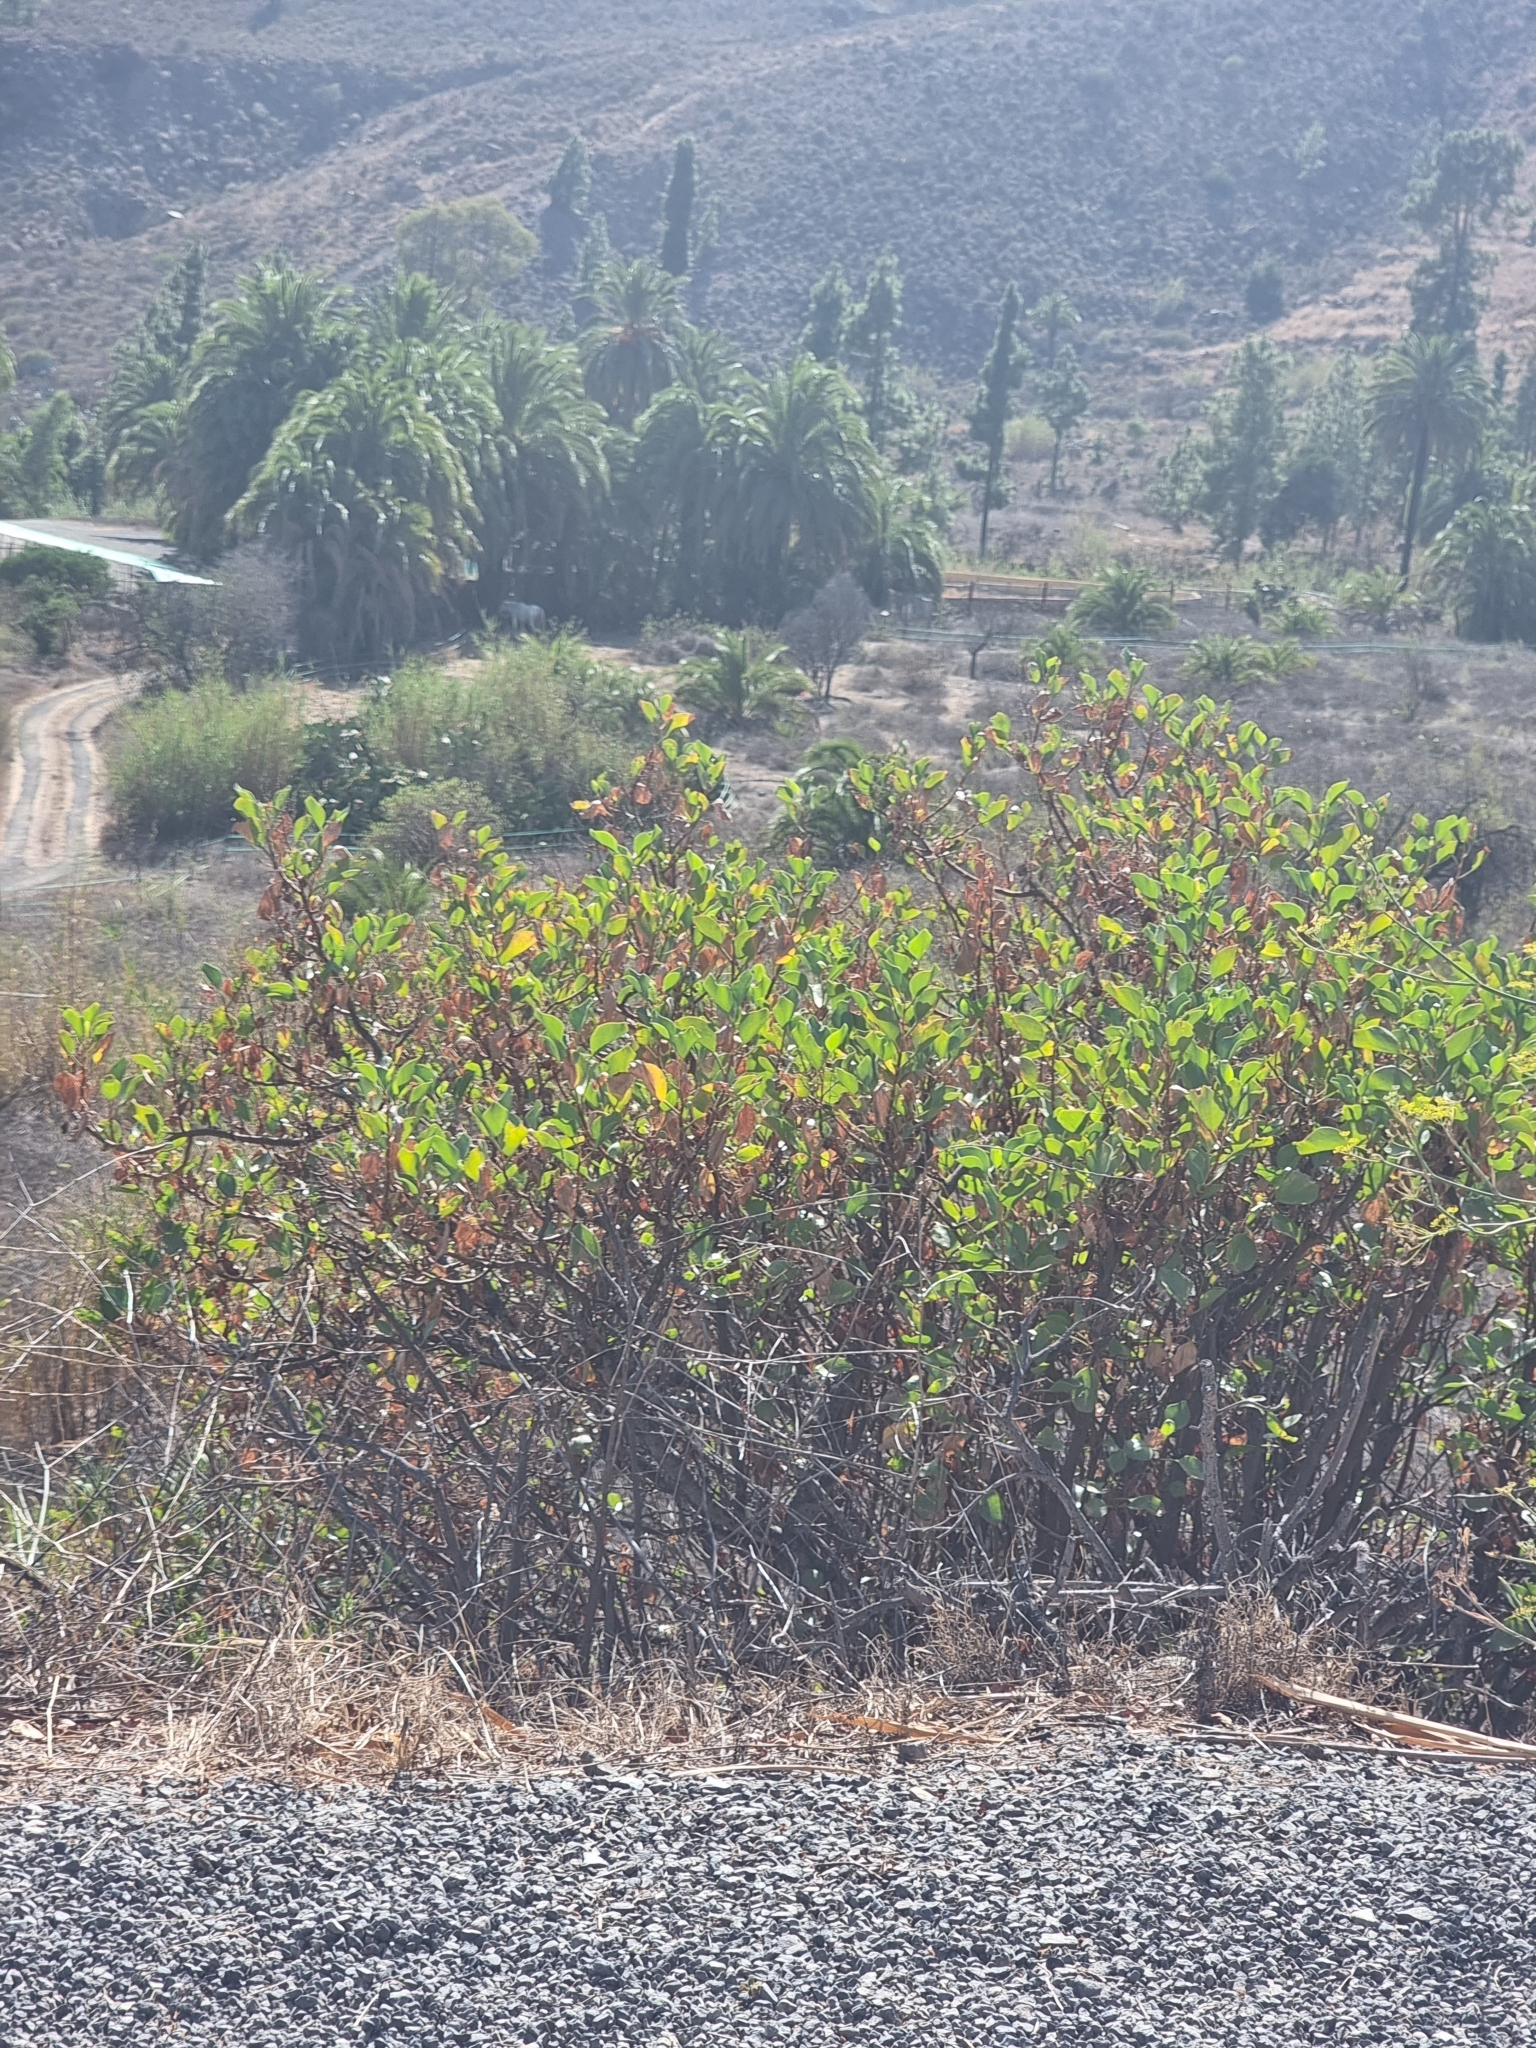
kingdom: Plantae
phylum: Tracheophyta
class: Magnoliopsida
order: Caryophyllales
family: Polygonaceae
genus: Rumex
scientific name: Rumex lunaria
